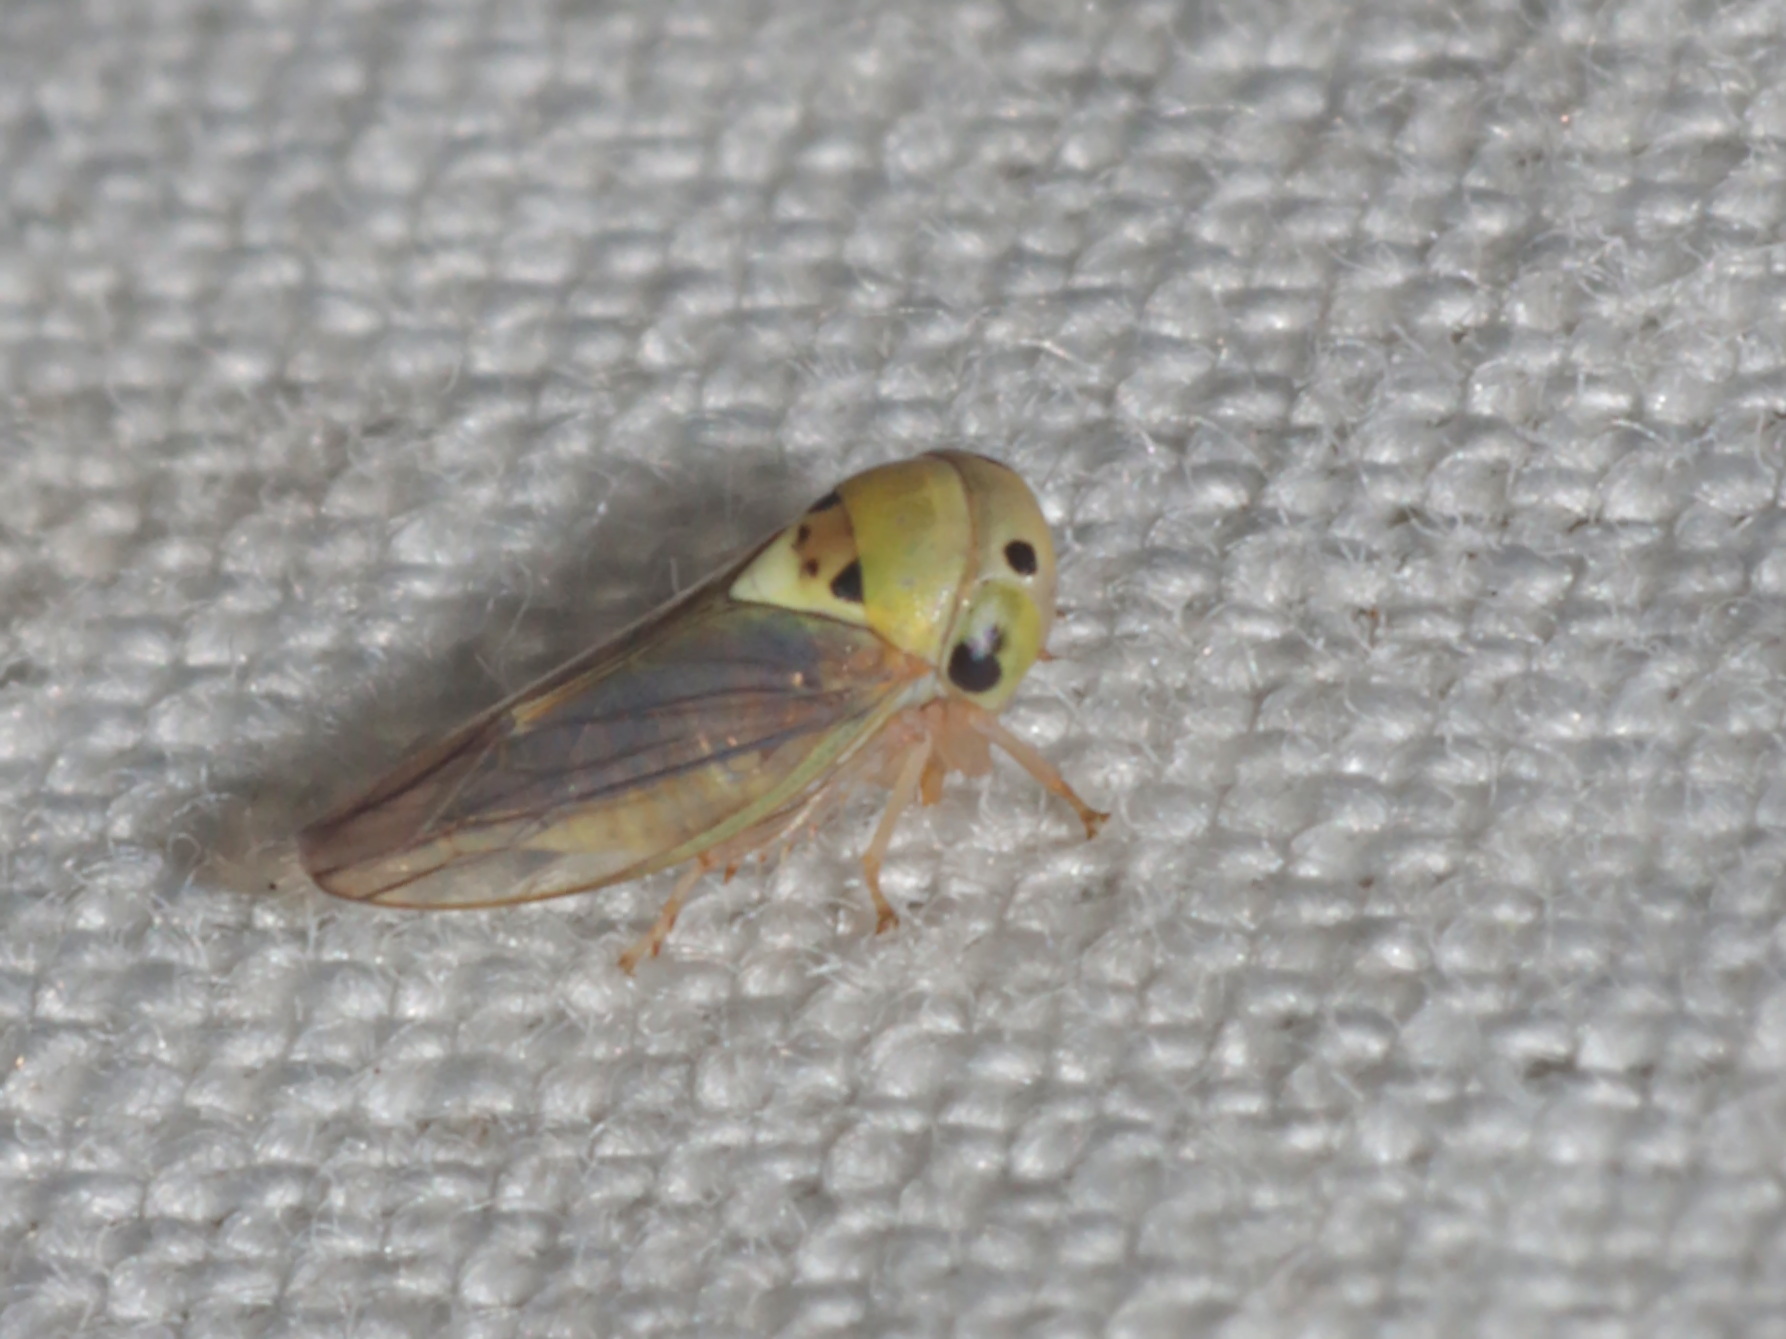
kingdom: Animalia
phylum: Arthropoda
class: Insecta
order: Hemiptera
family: Cicadellidae
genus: Idioscopus
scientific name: Idioscopus clypealis
